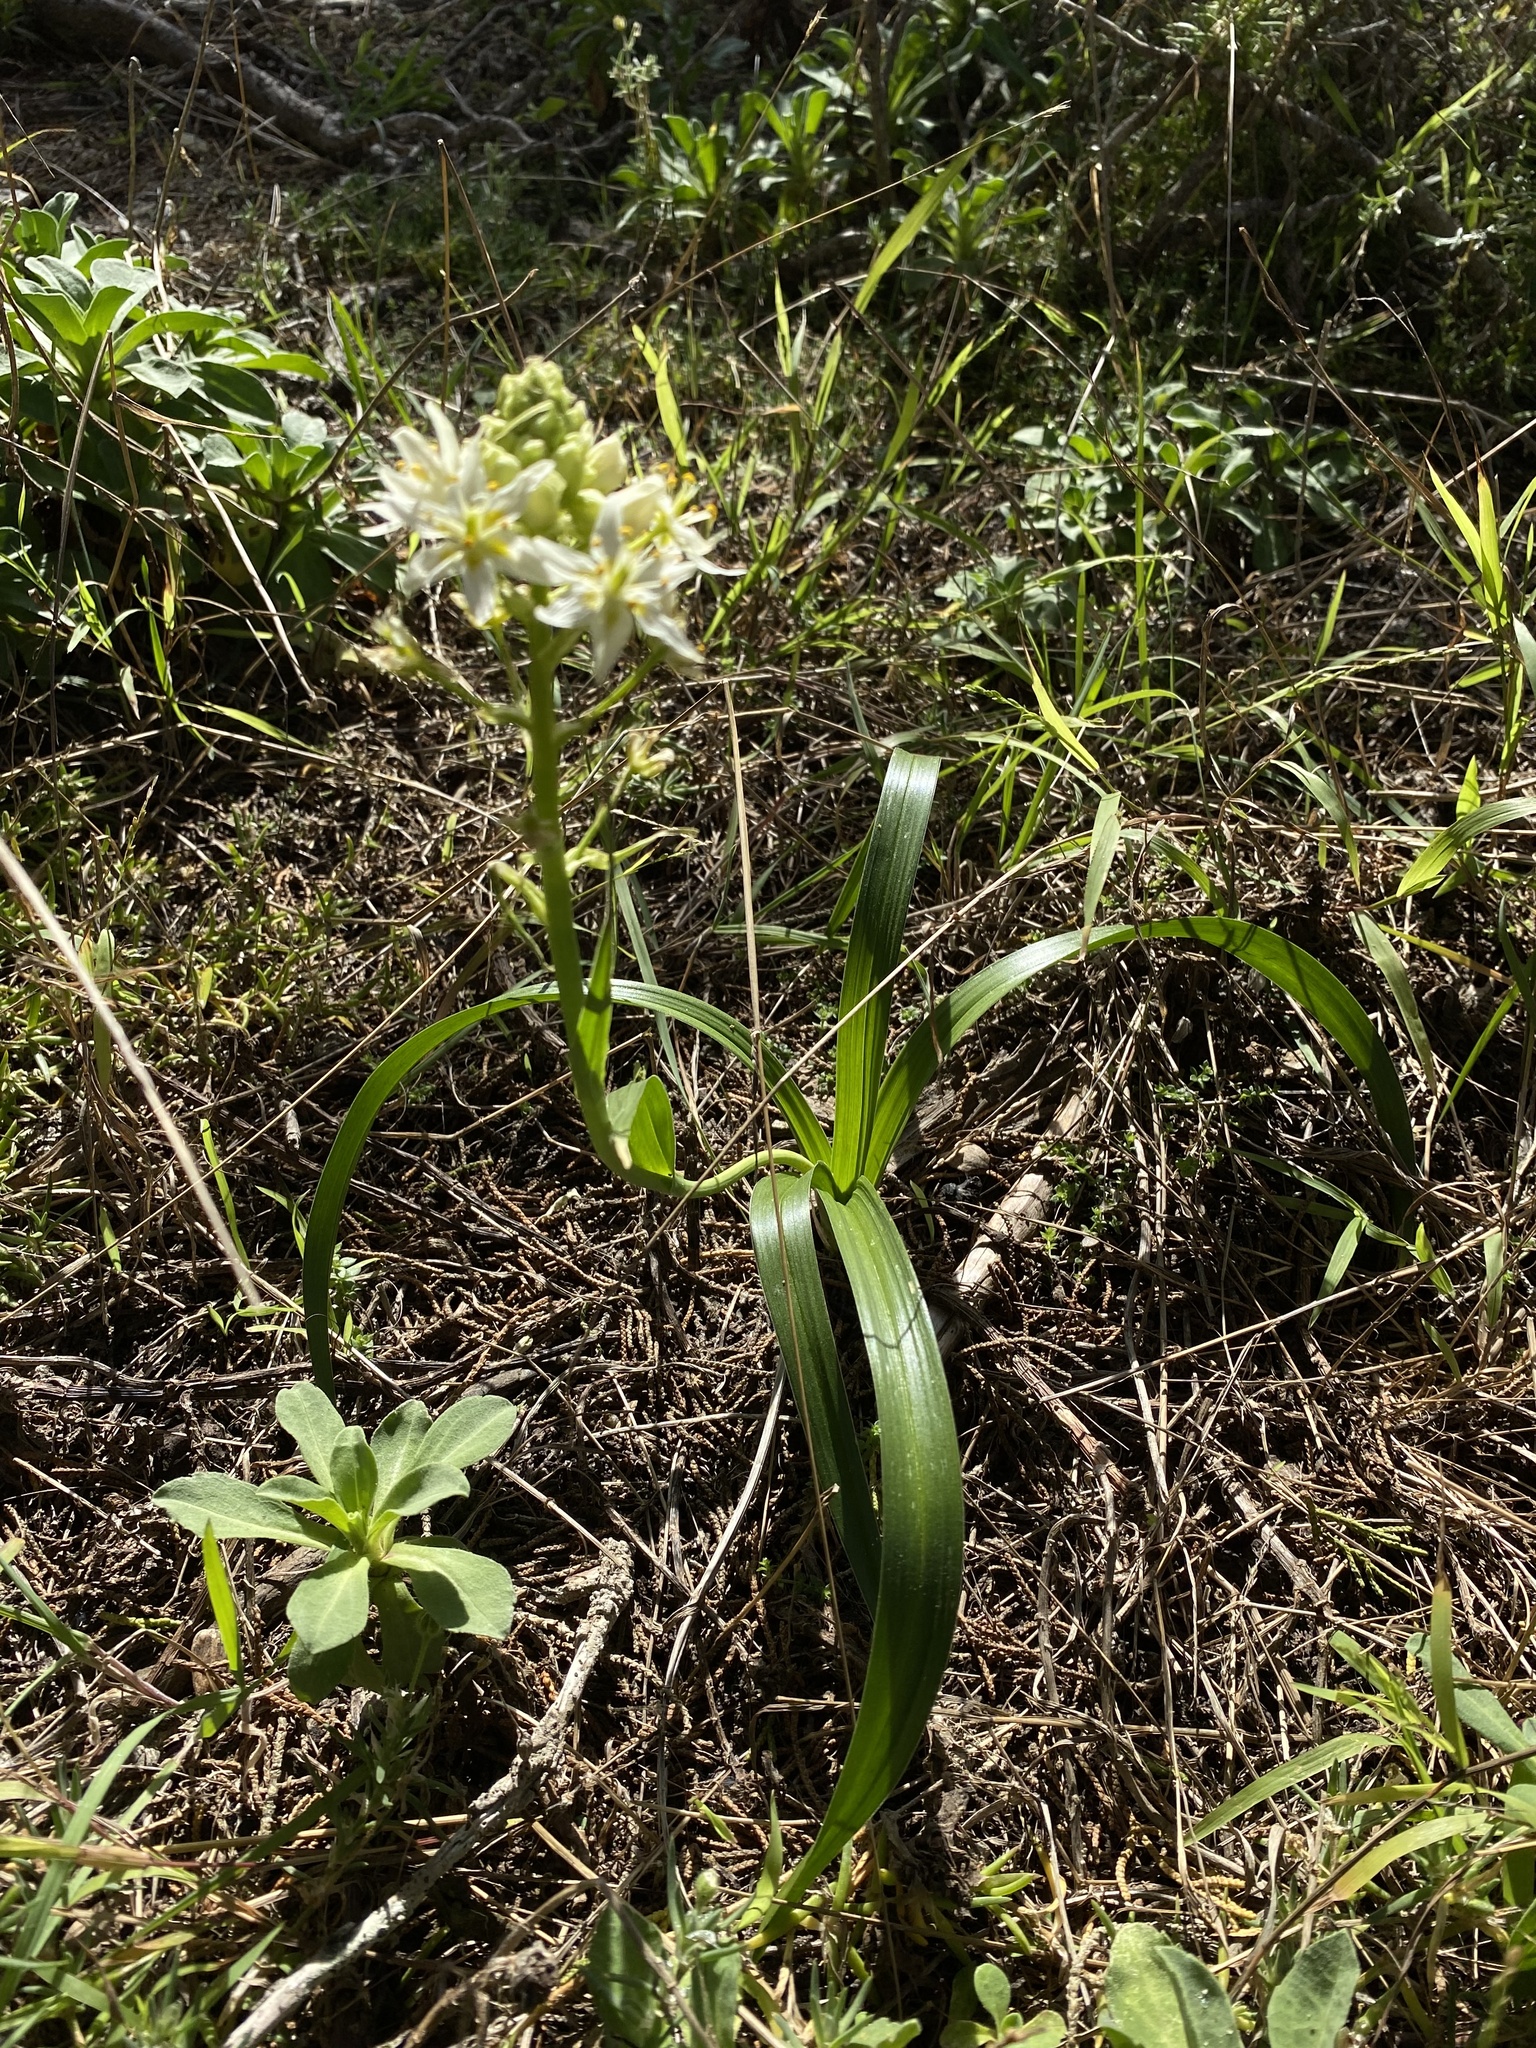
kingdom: Plantae
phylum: Tracheophyta
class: Liliopsida
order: Liliales
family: Melanthiaceae
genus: Toxicoscordion
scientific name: Toxicoscordion fremontii
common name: Fremont's death camas
